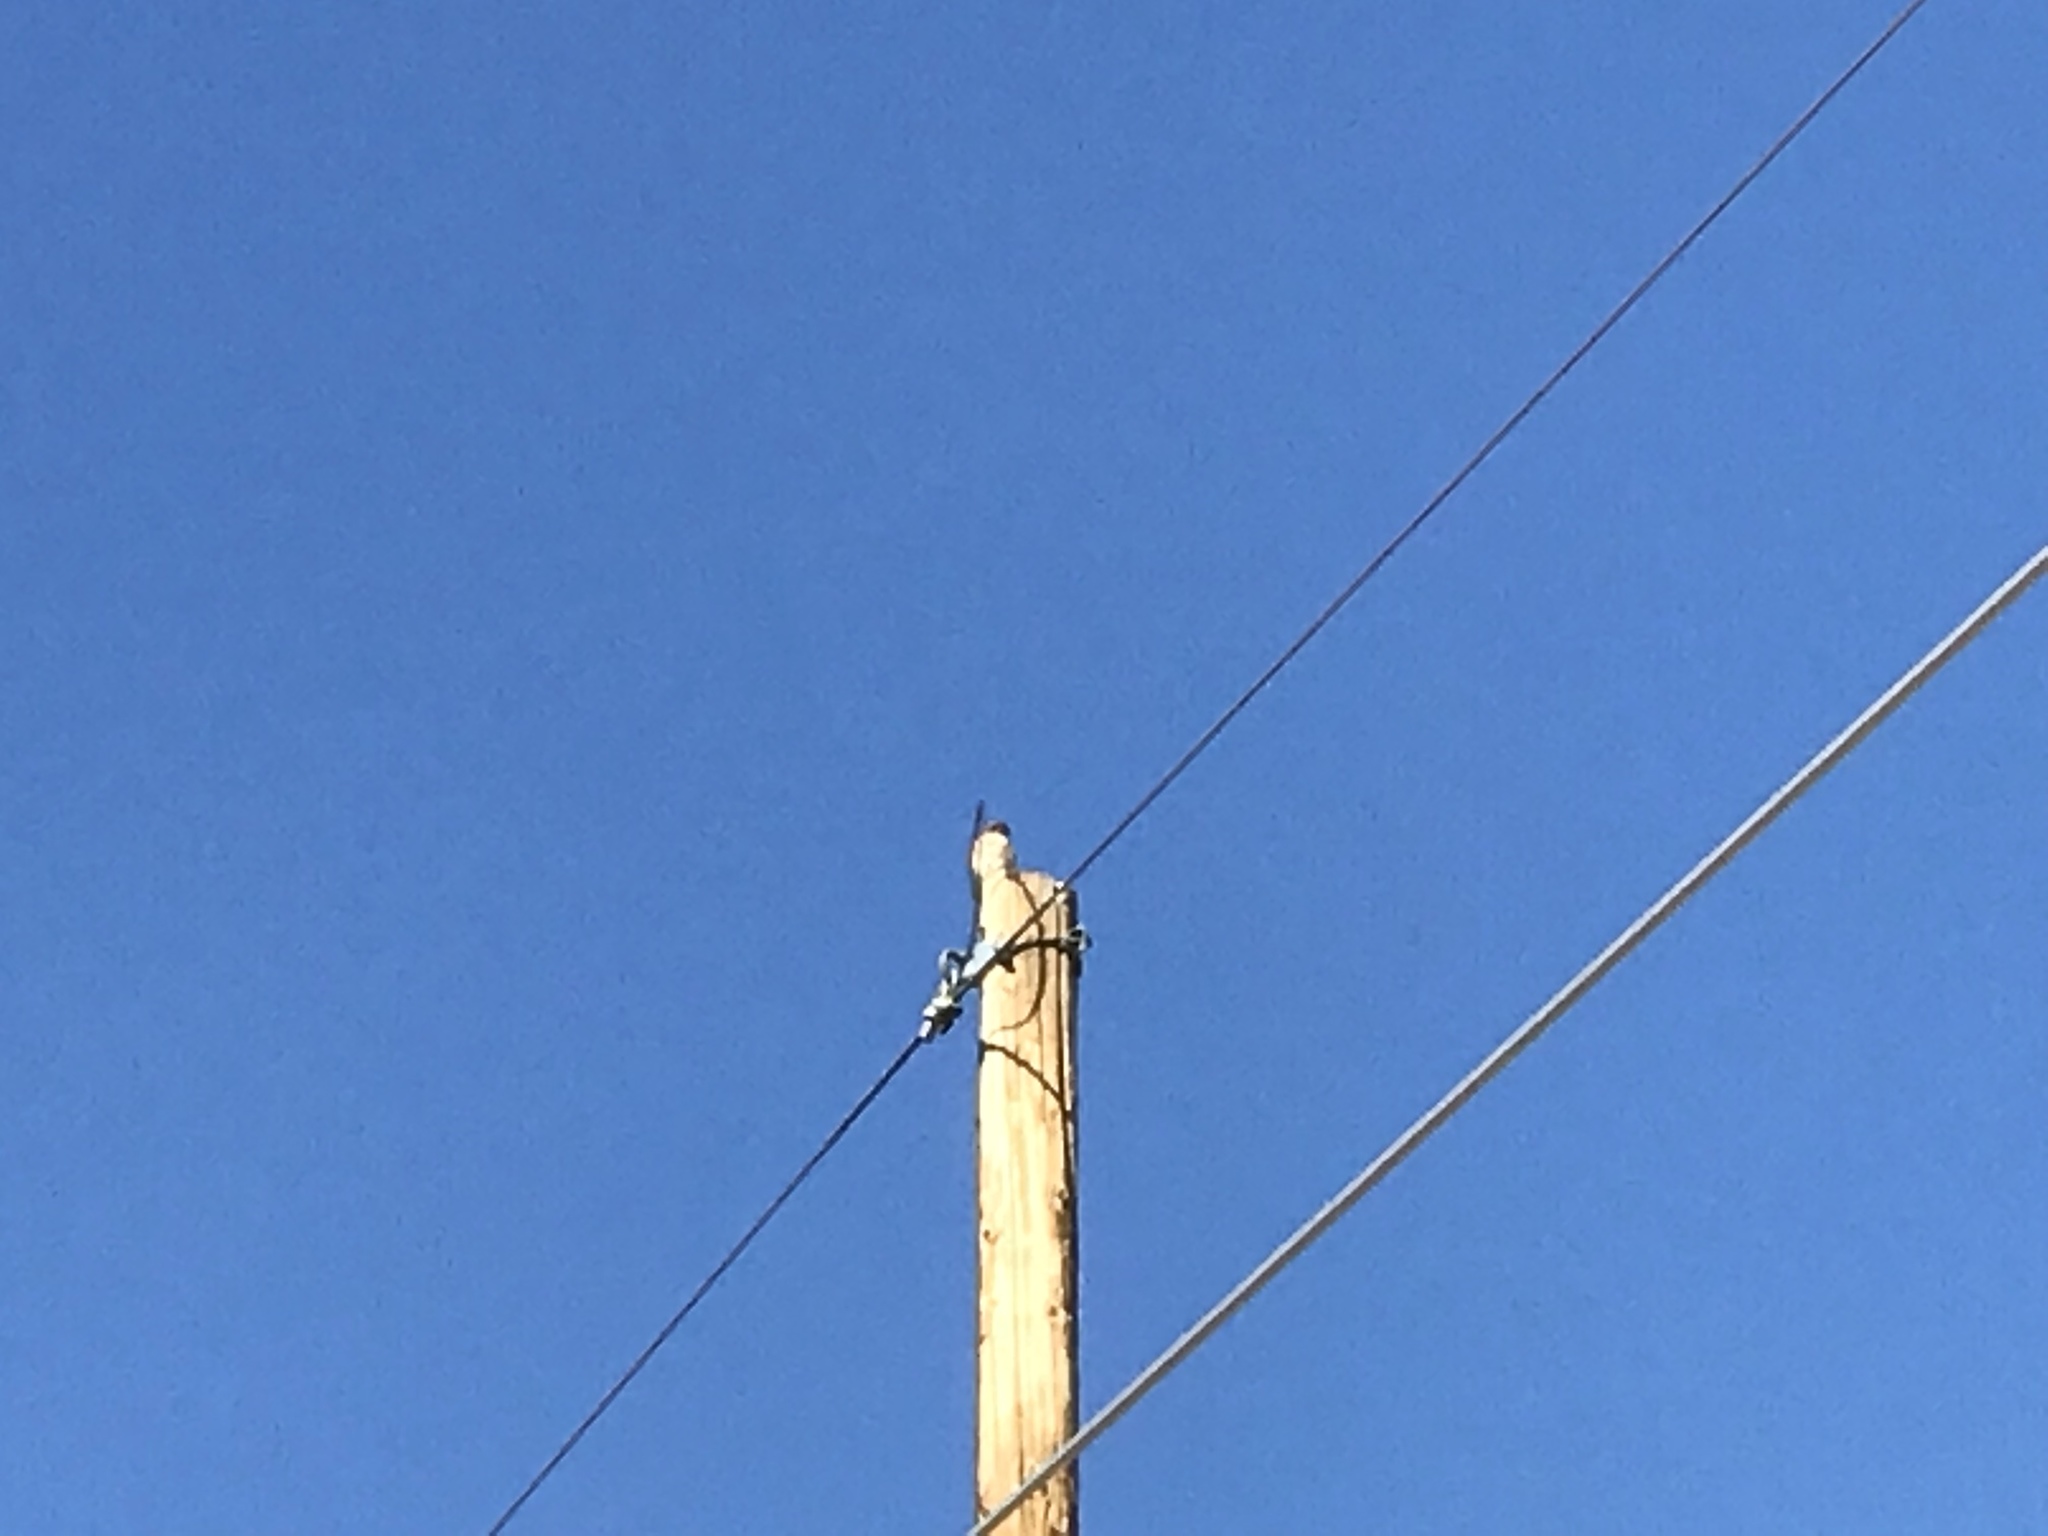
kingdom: Animalia
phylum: Chordata
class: Aves
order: Falconiformes
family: Falconidae
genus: Falco
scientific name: Falco sparverius
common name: American kestrel
